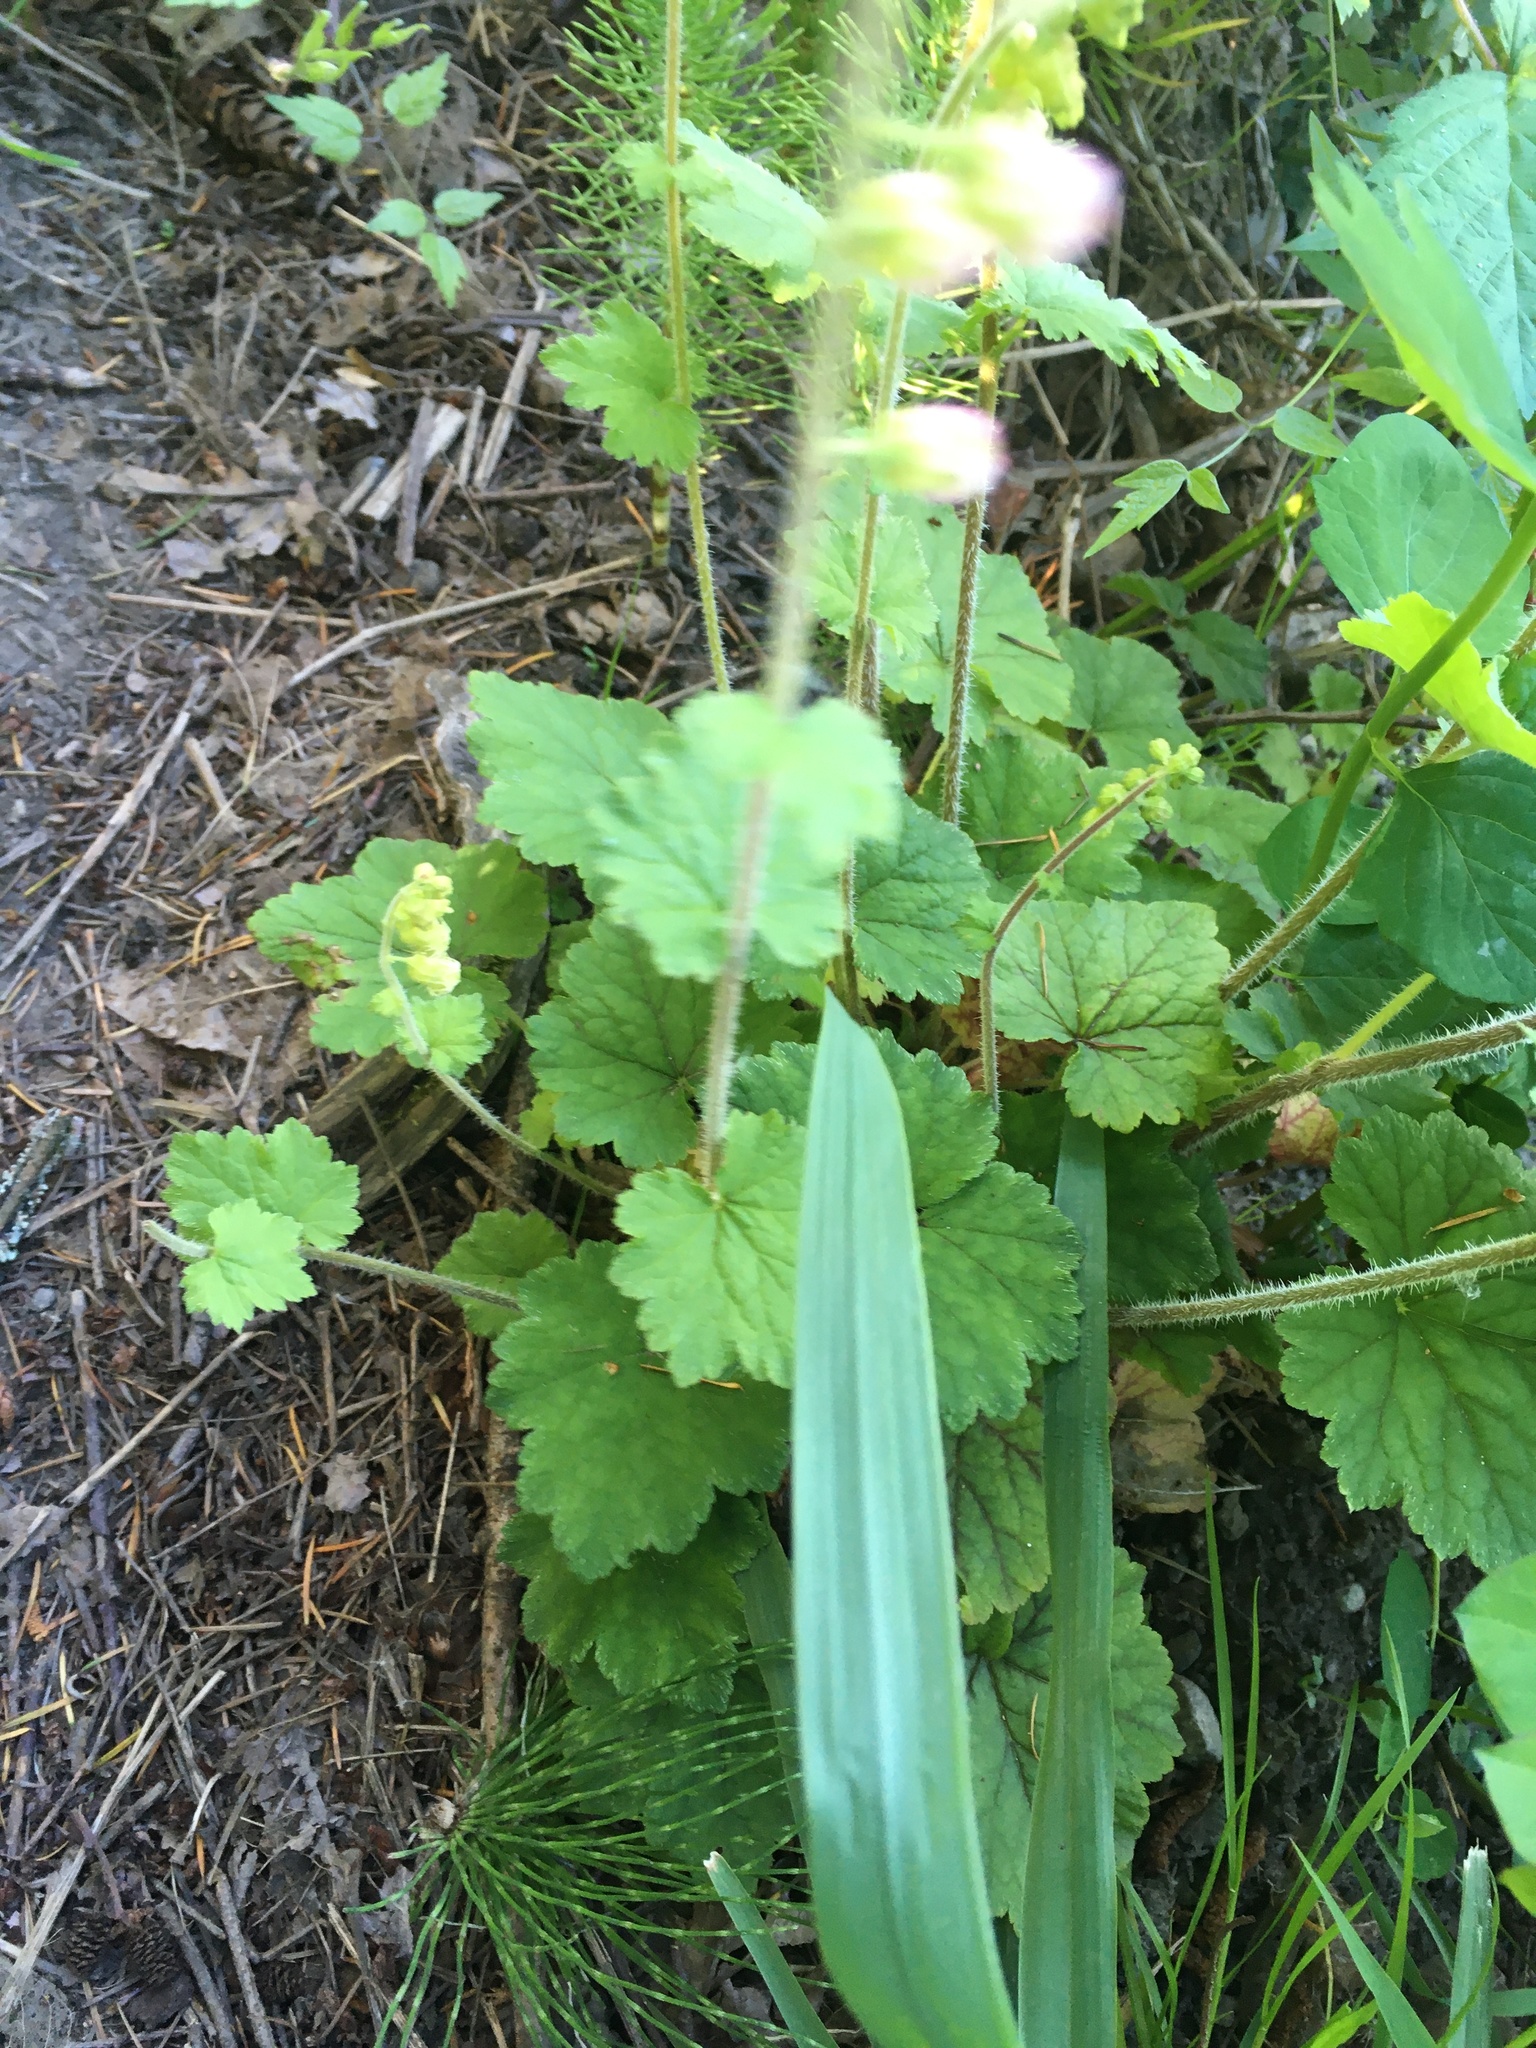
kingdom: Plantae
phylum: Tracheophyta
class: Magnoliopsida
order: Saxifragales
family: Saxifragaceae
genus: Tellima
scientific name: Tellima grandiflora
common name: Fringecups
